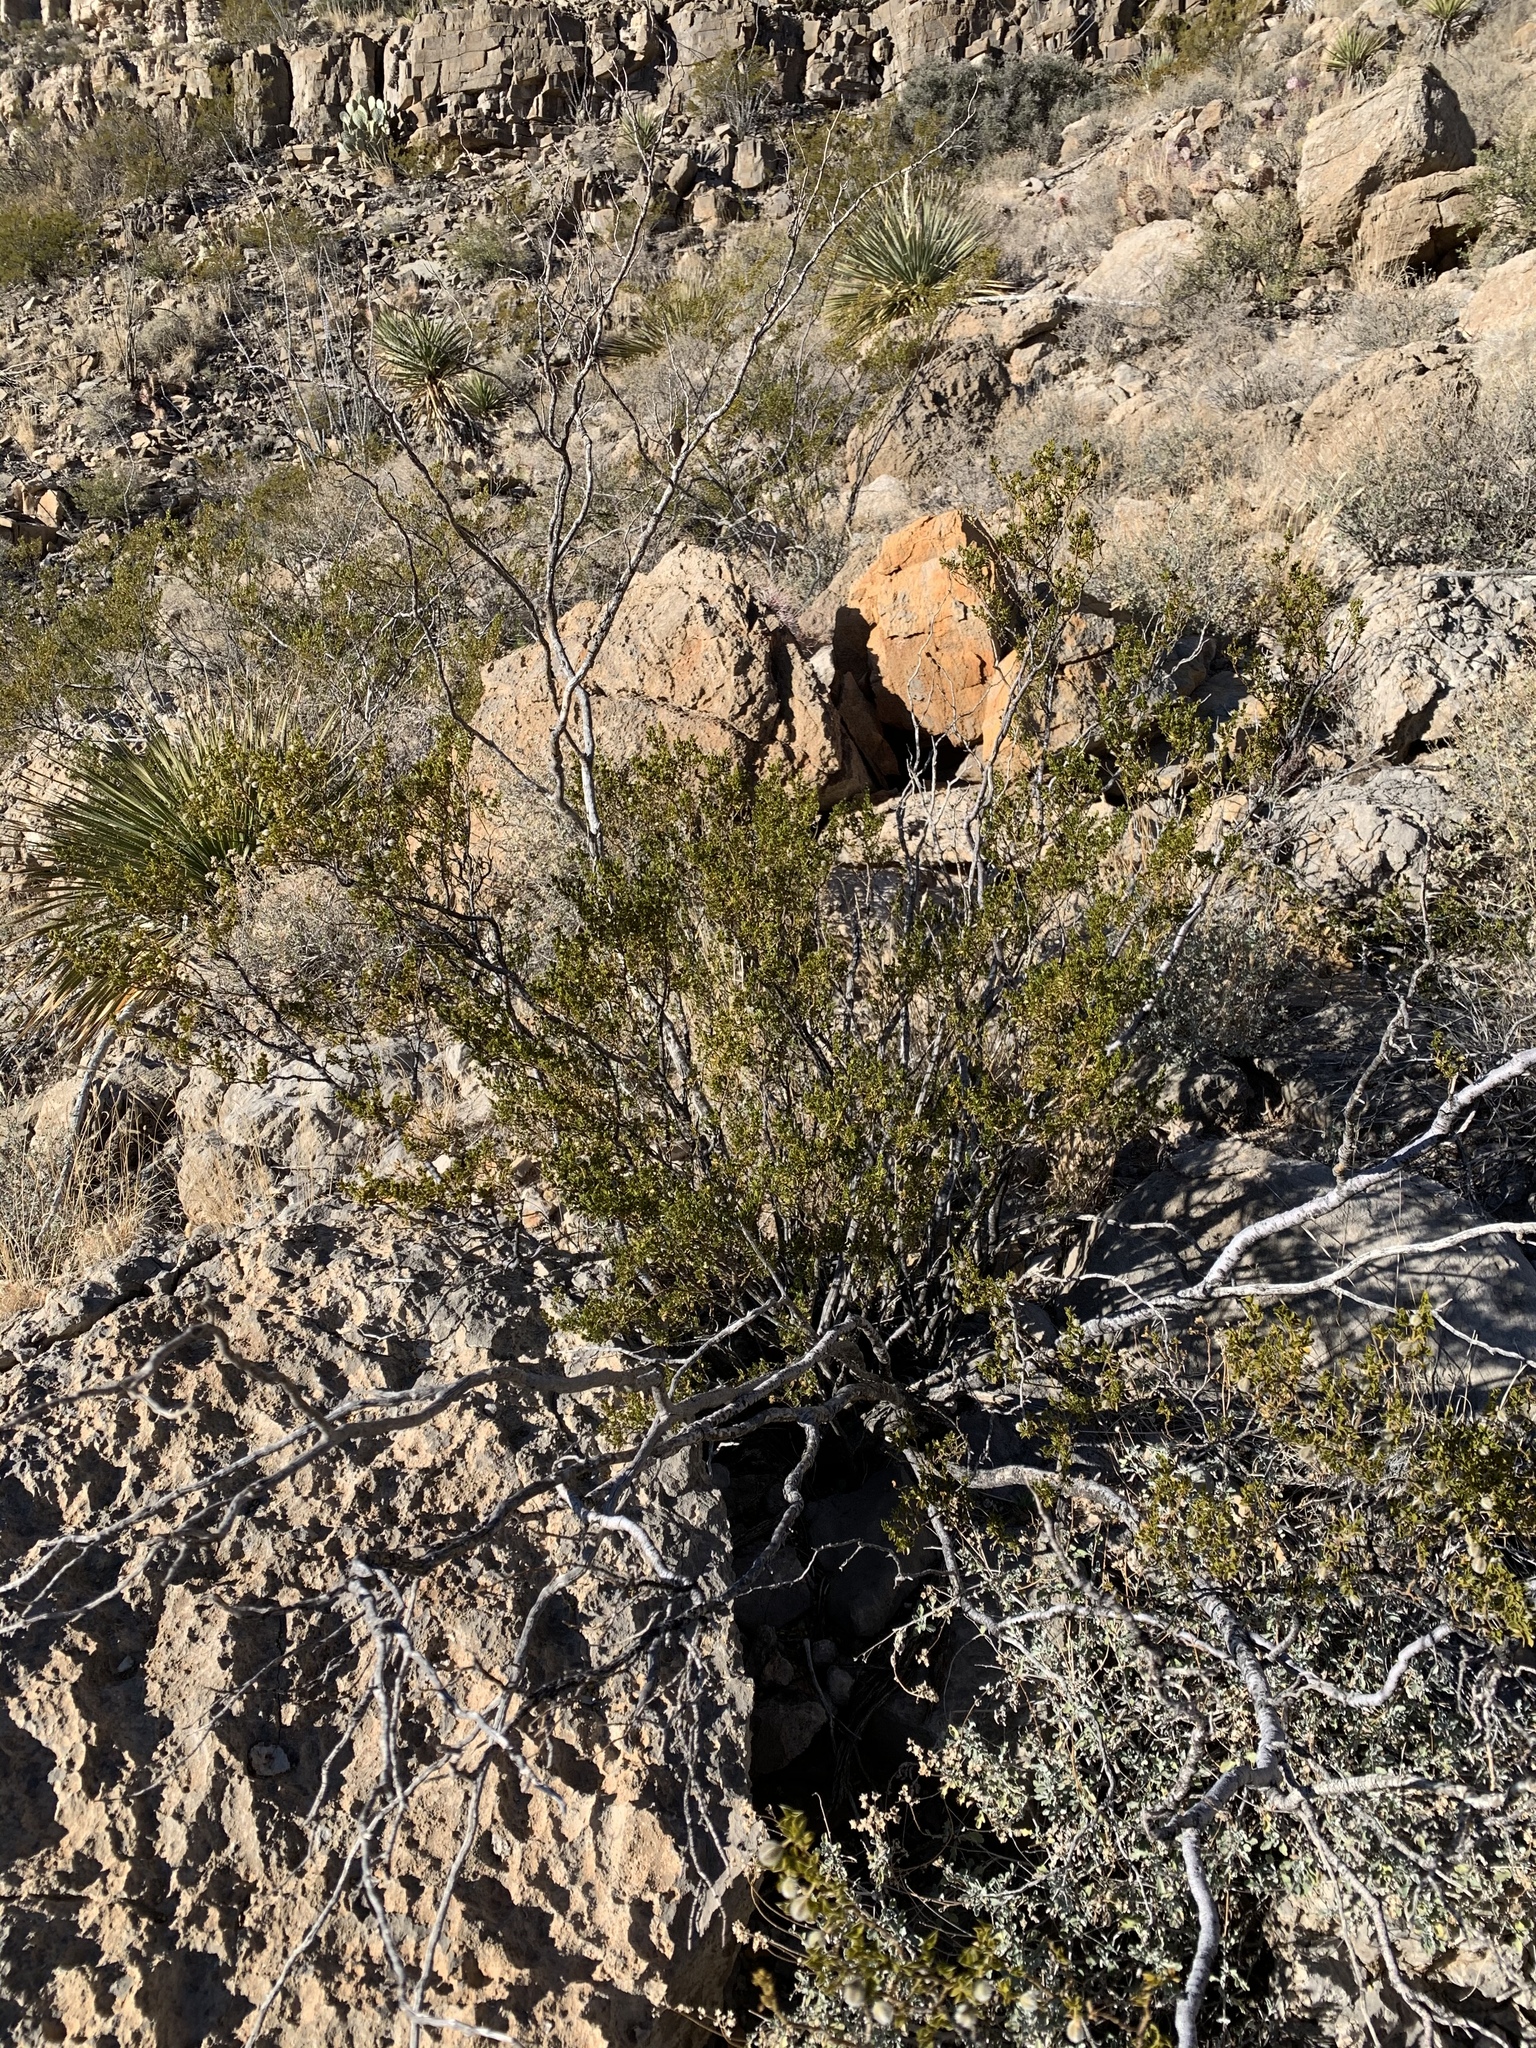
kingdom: Plantae
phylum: Tracheophyta
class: Magnoliopsida
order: Zygophyllales
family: Zygophyllaceae
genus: Larrea
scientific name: Larrea tridentata
